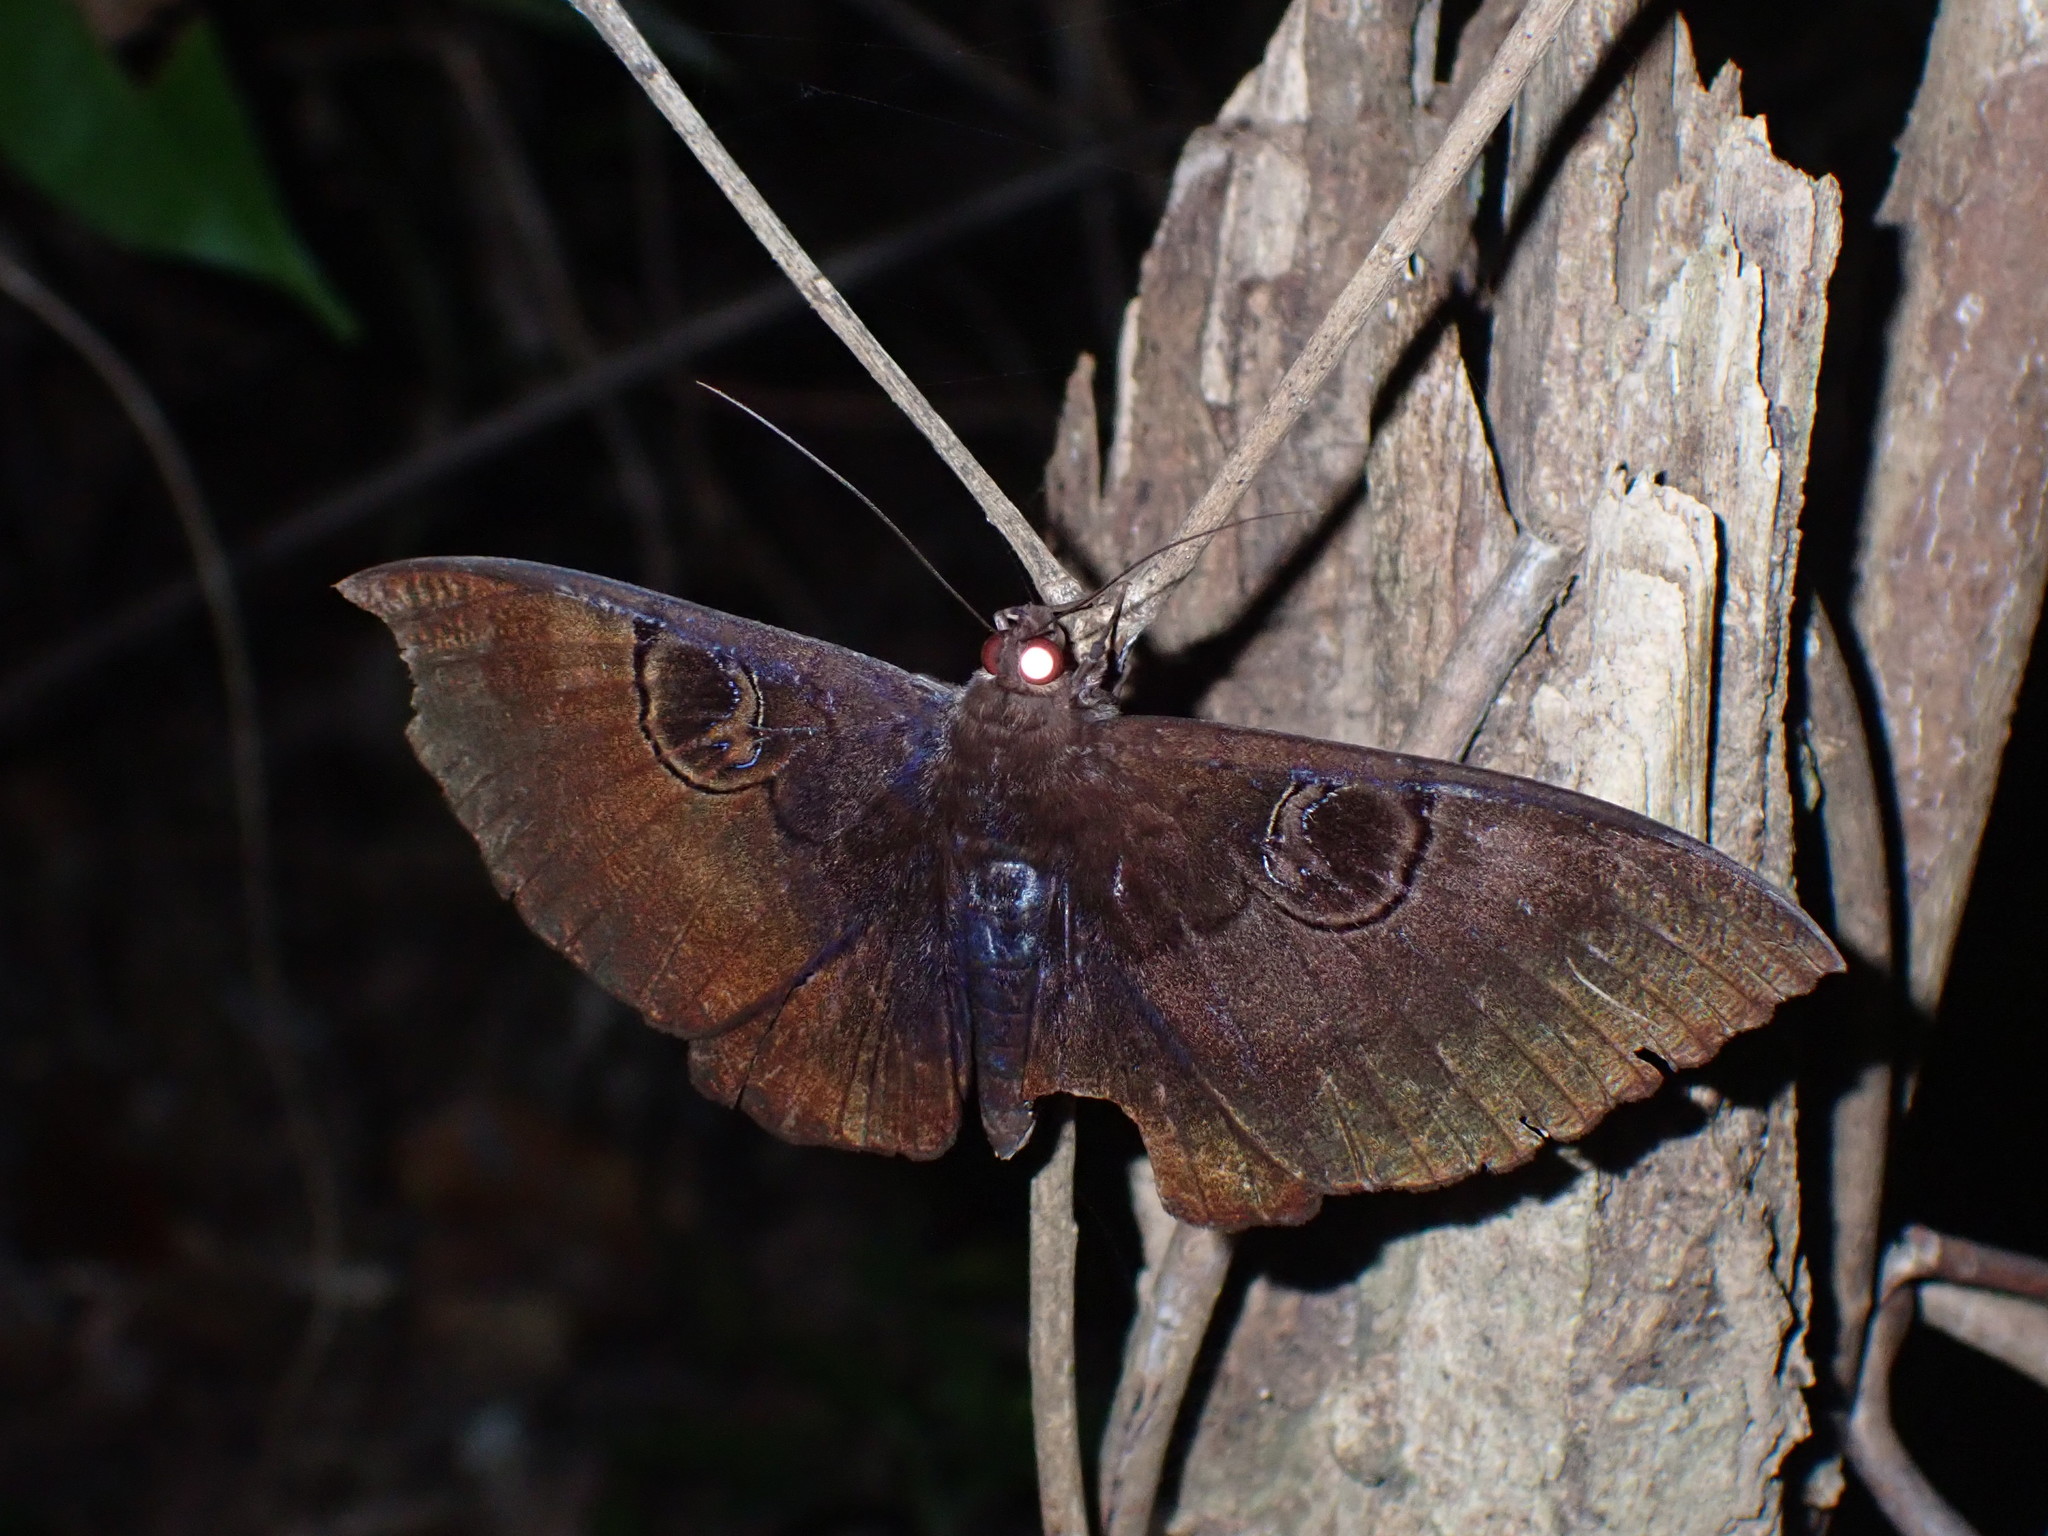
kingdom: Animalia
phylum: Arthropoda
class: Insecta
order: Lepidoptera
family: Erebidae
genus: Erebus
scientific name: Erebus caprimulgus
